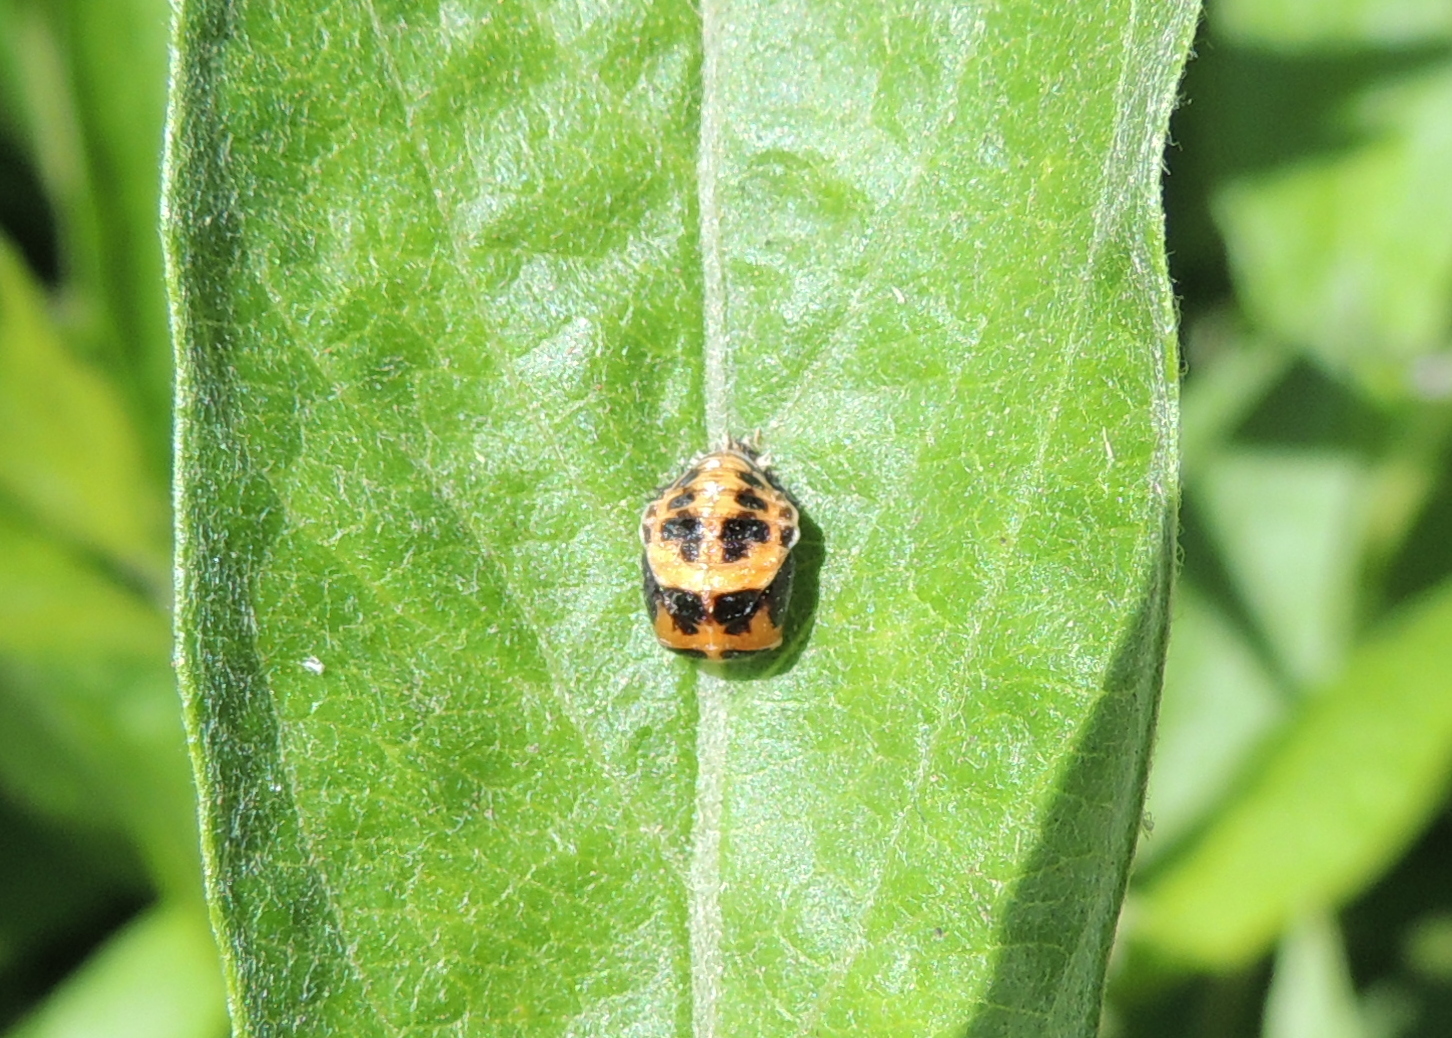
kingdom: Animalia
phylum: Arthropoda
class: Insecta
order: Coleoptera
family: Coccinellidae
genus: Harmonia
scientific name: Harmonia axyridis
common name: Harlequin ladybird
